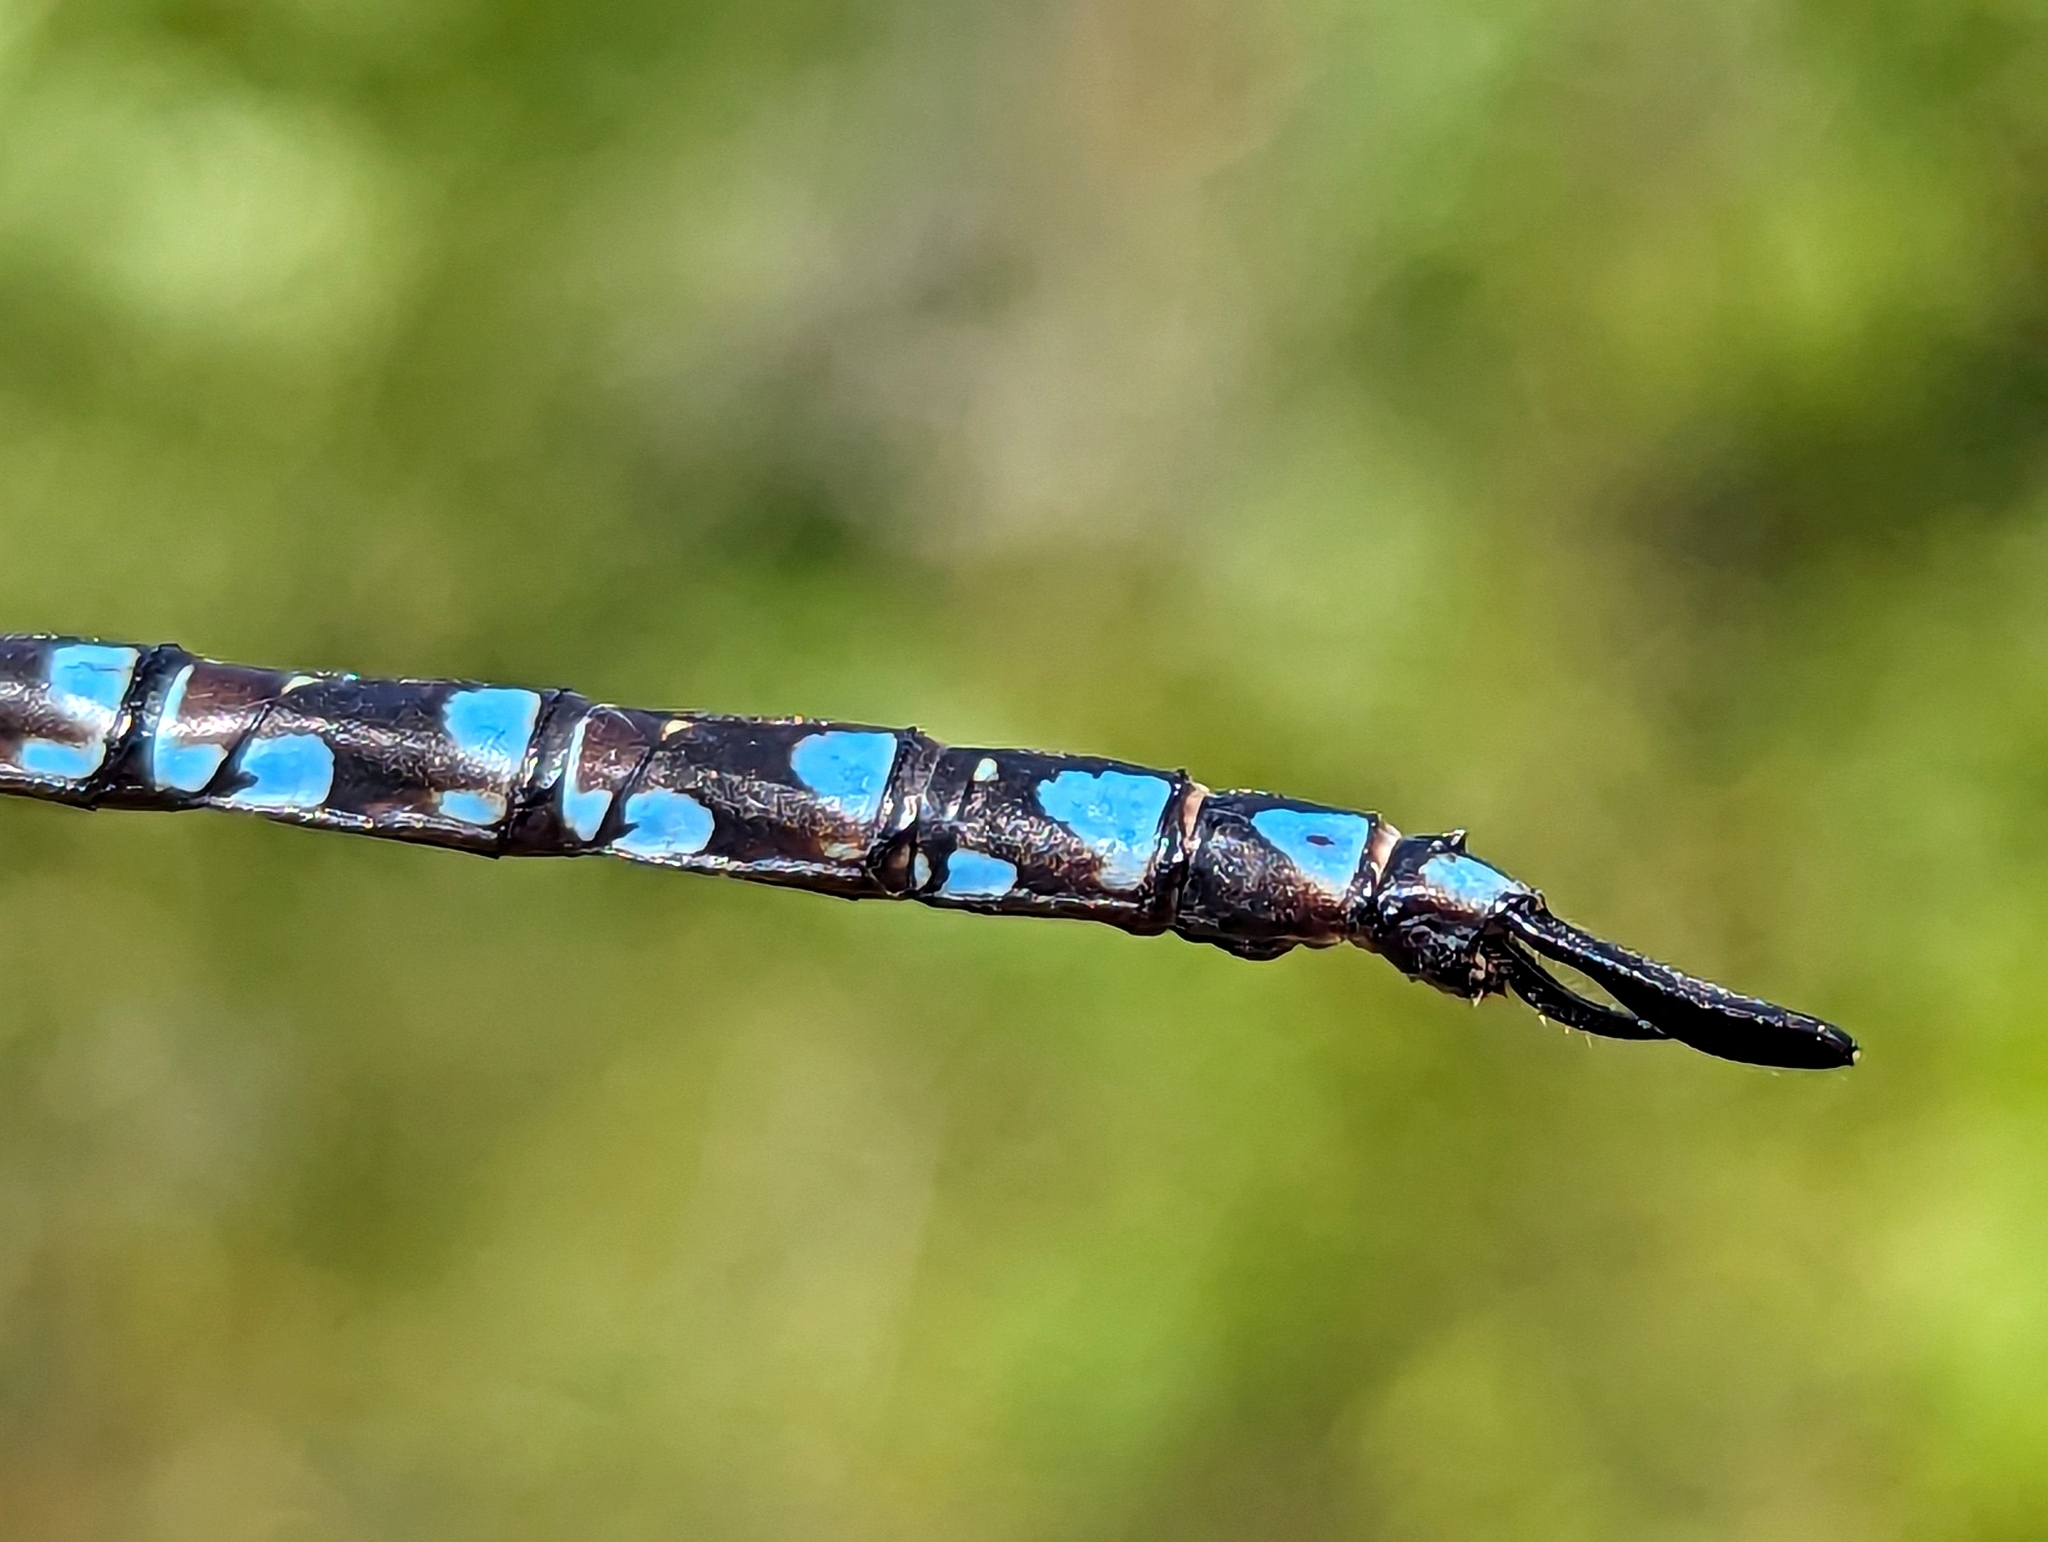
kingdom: Animalia
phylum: Arthropoda
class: Insecta
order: Odonata
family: Aeshnidae
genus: Aeshna
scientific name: Aeshna canadensis
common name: Canada darner
